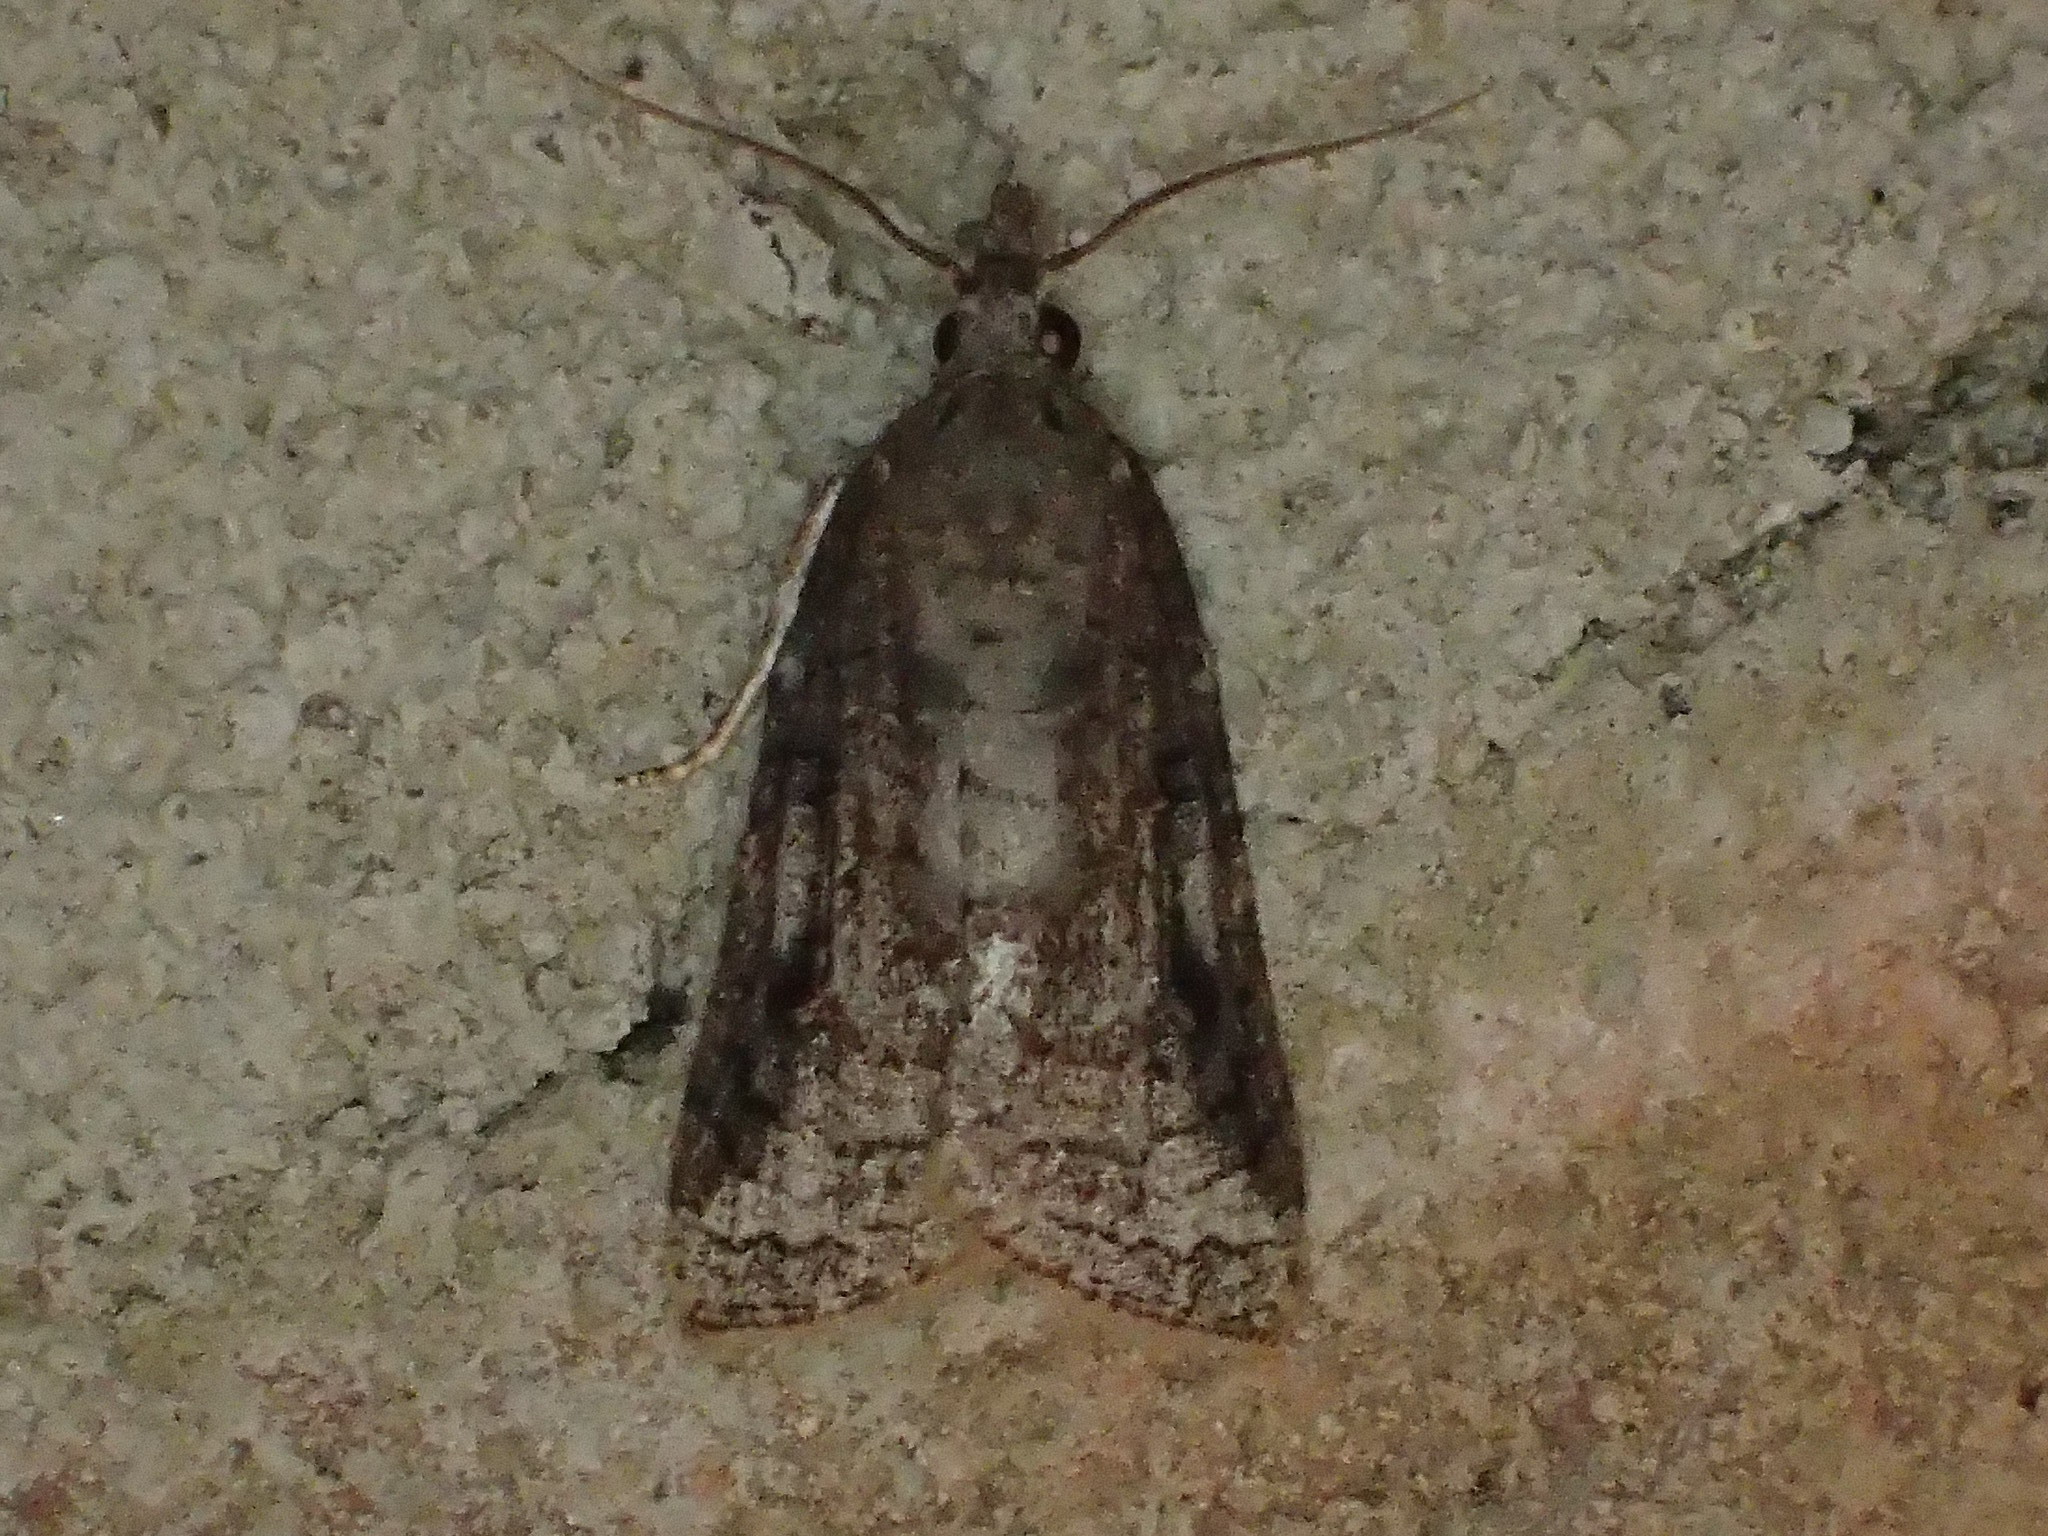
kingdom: Animalia
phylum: Arthropoda
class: Insecta
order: Lepidoptera
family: Tortricidae
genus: Platynota
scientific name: Platynota idaeusalis
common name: Tufted apple bud moth
